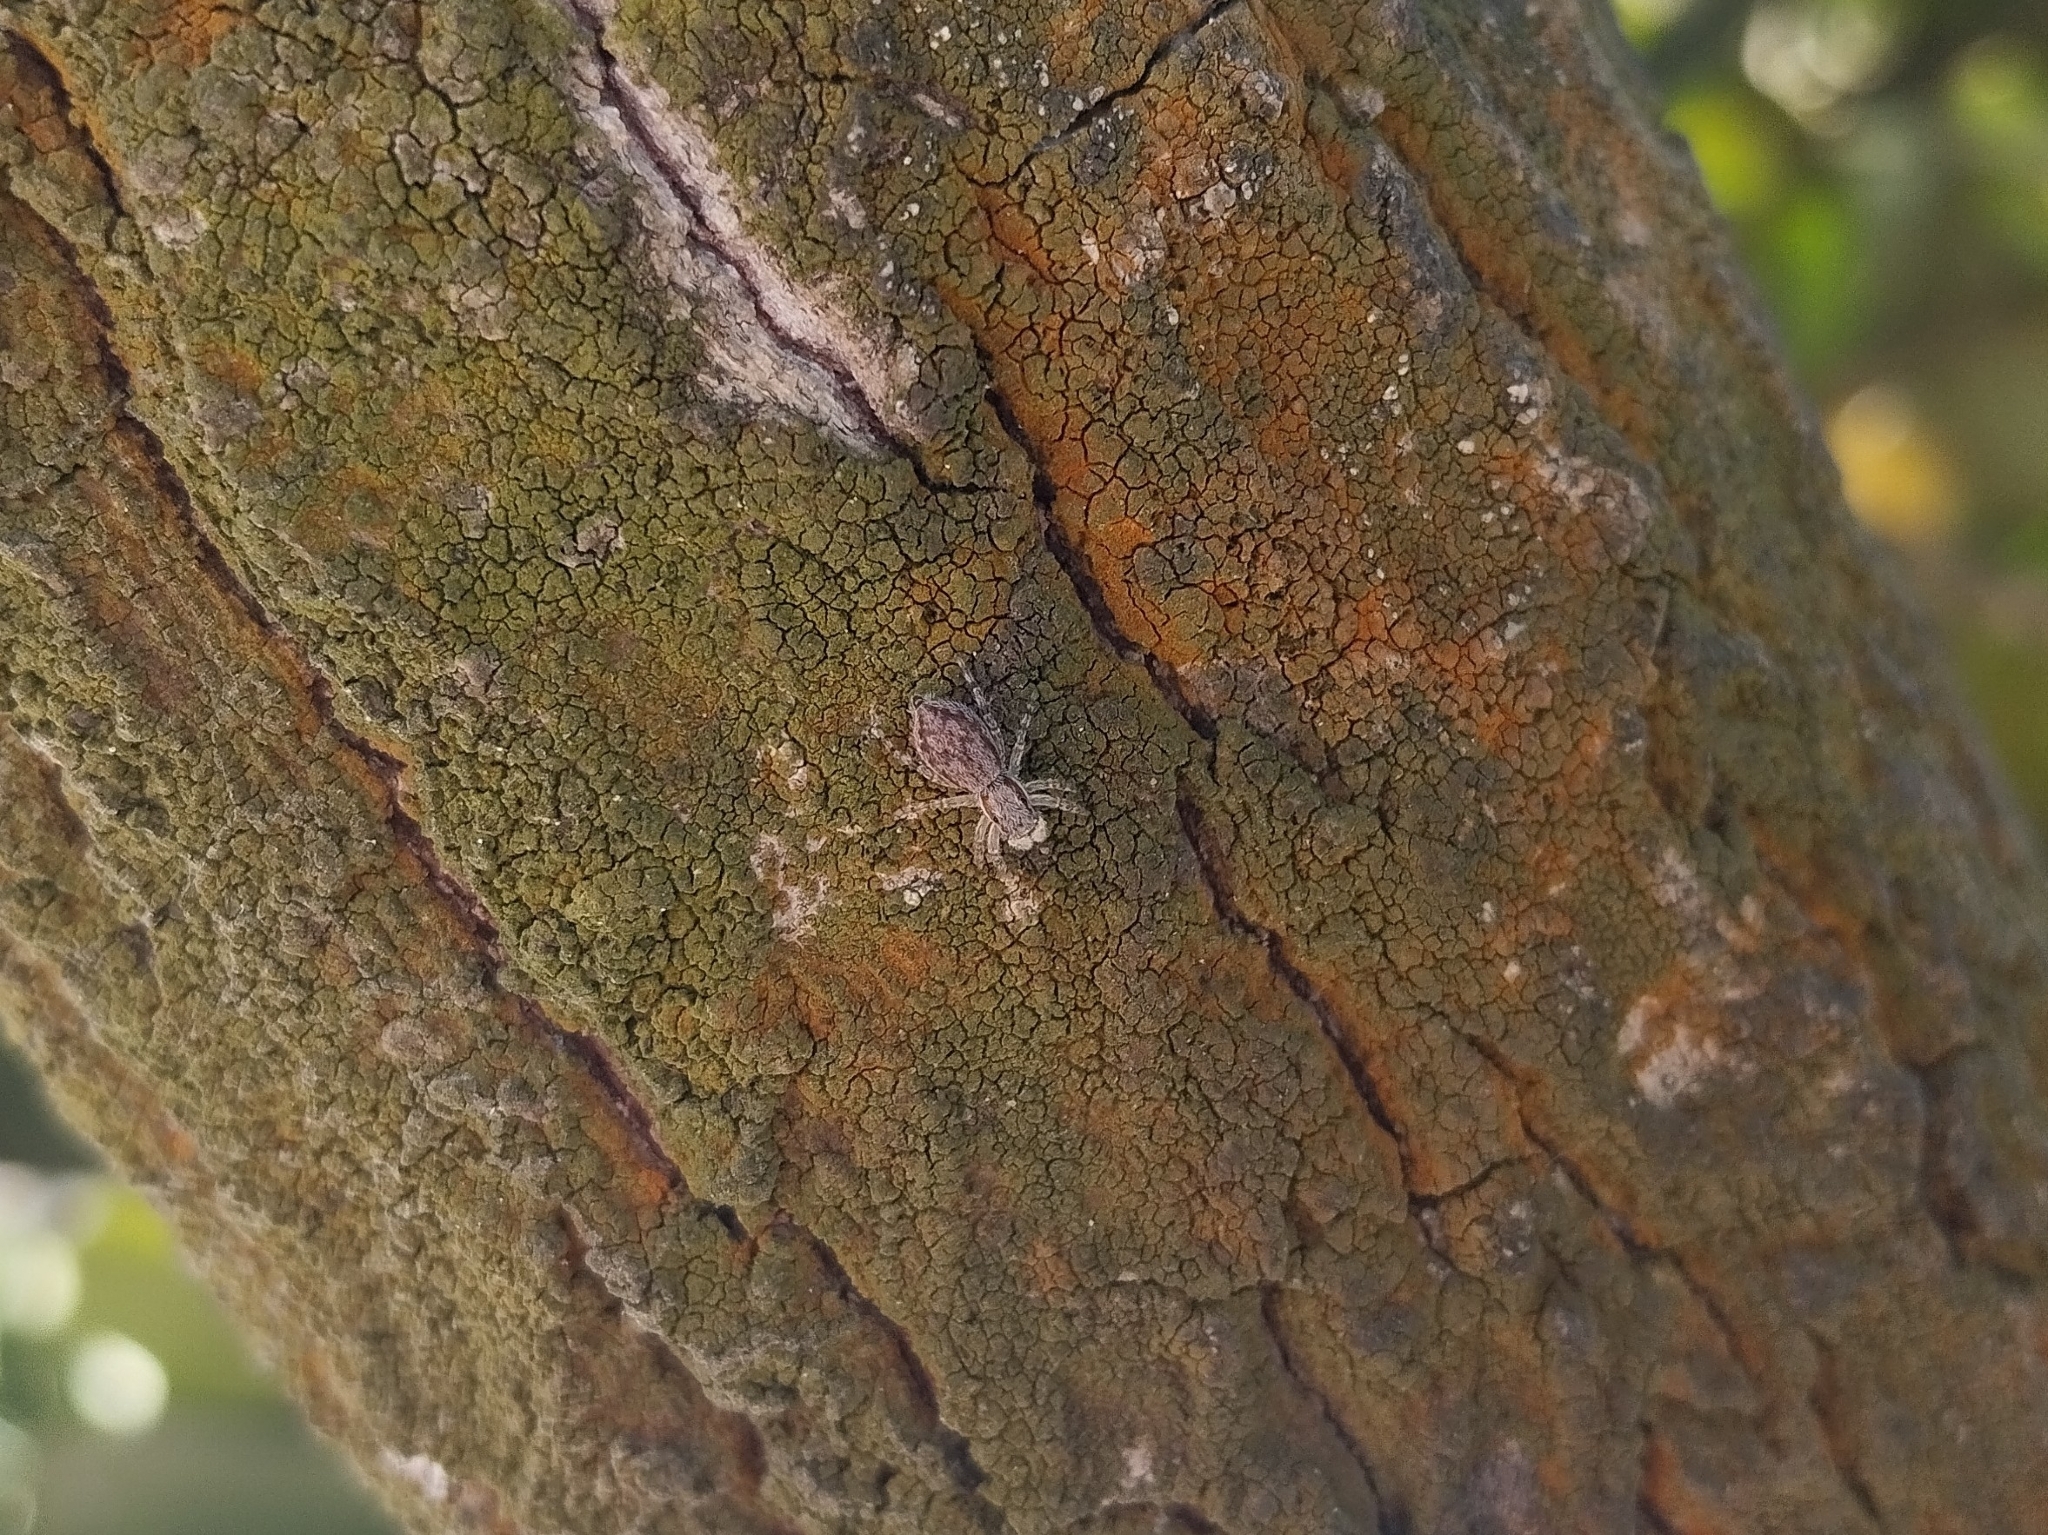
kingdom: Animalia
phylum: Arthropoda
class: Arachnida
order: Araneae
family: Salticidae
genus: Menemerus
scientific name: Menemerus bivittatus
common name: Gray wall jumper
